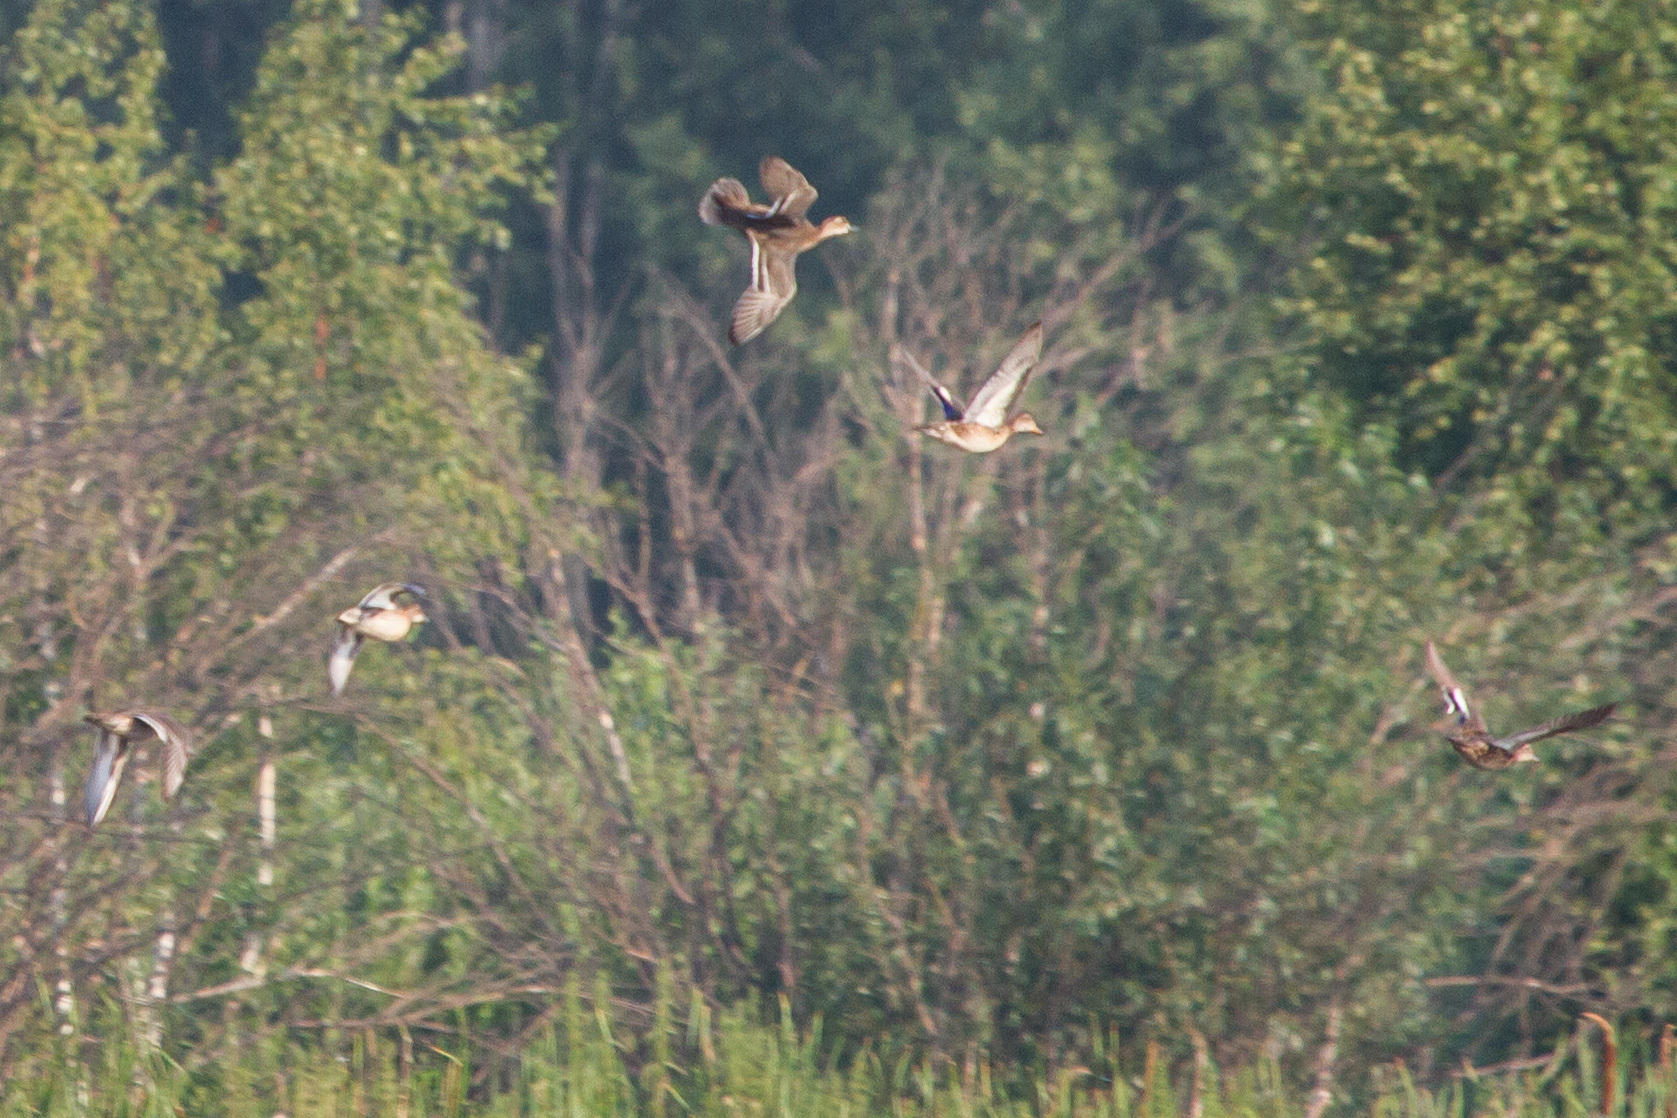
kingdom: Animalia
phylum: Chordata
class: Aves
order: Anseriformes
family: Anatidae
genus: Anas
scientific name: Anas platyrhynchos
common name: Mallard
